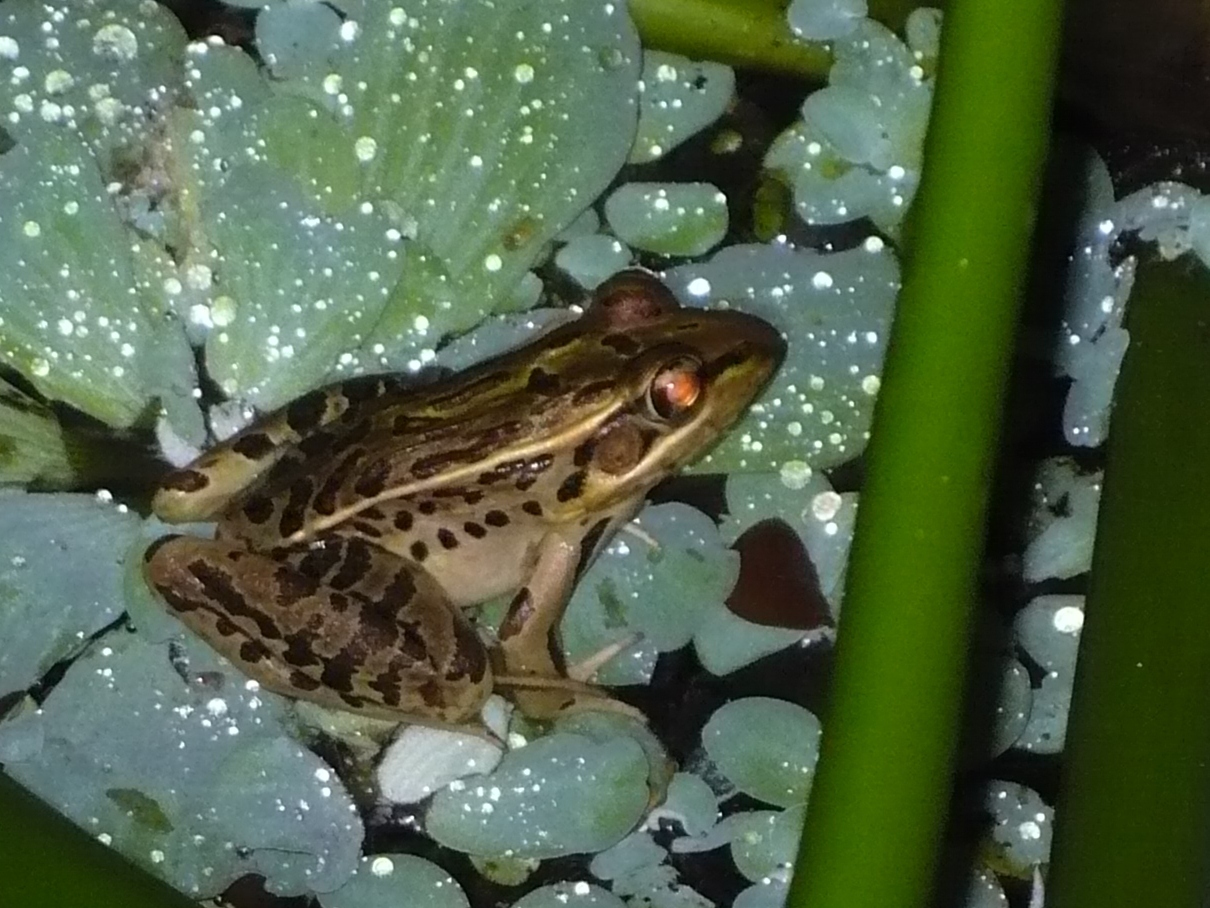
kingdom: Animalia
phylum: Chordata
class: Amphibia
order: Anura
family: Ranidae
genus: Lithobates
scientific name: Lithobates forreri
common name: Forrer's grass frog
